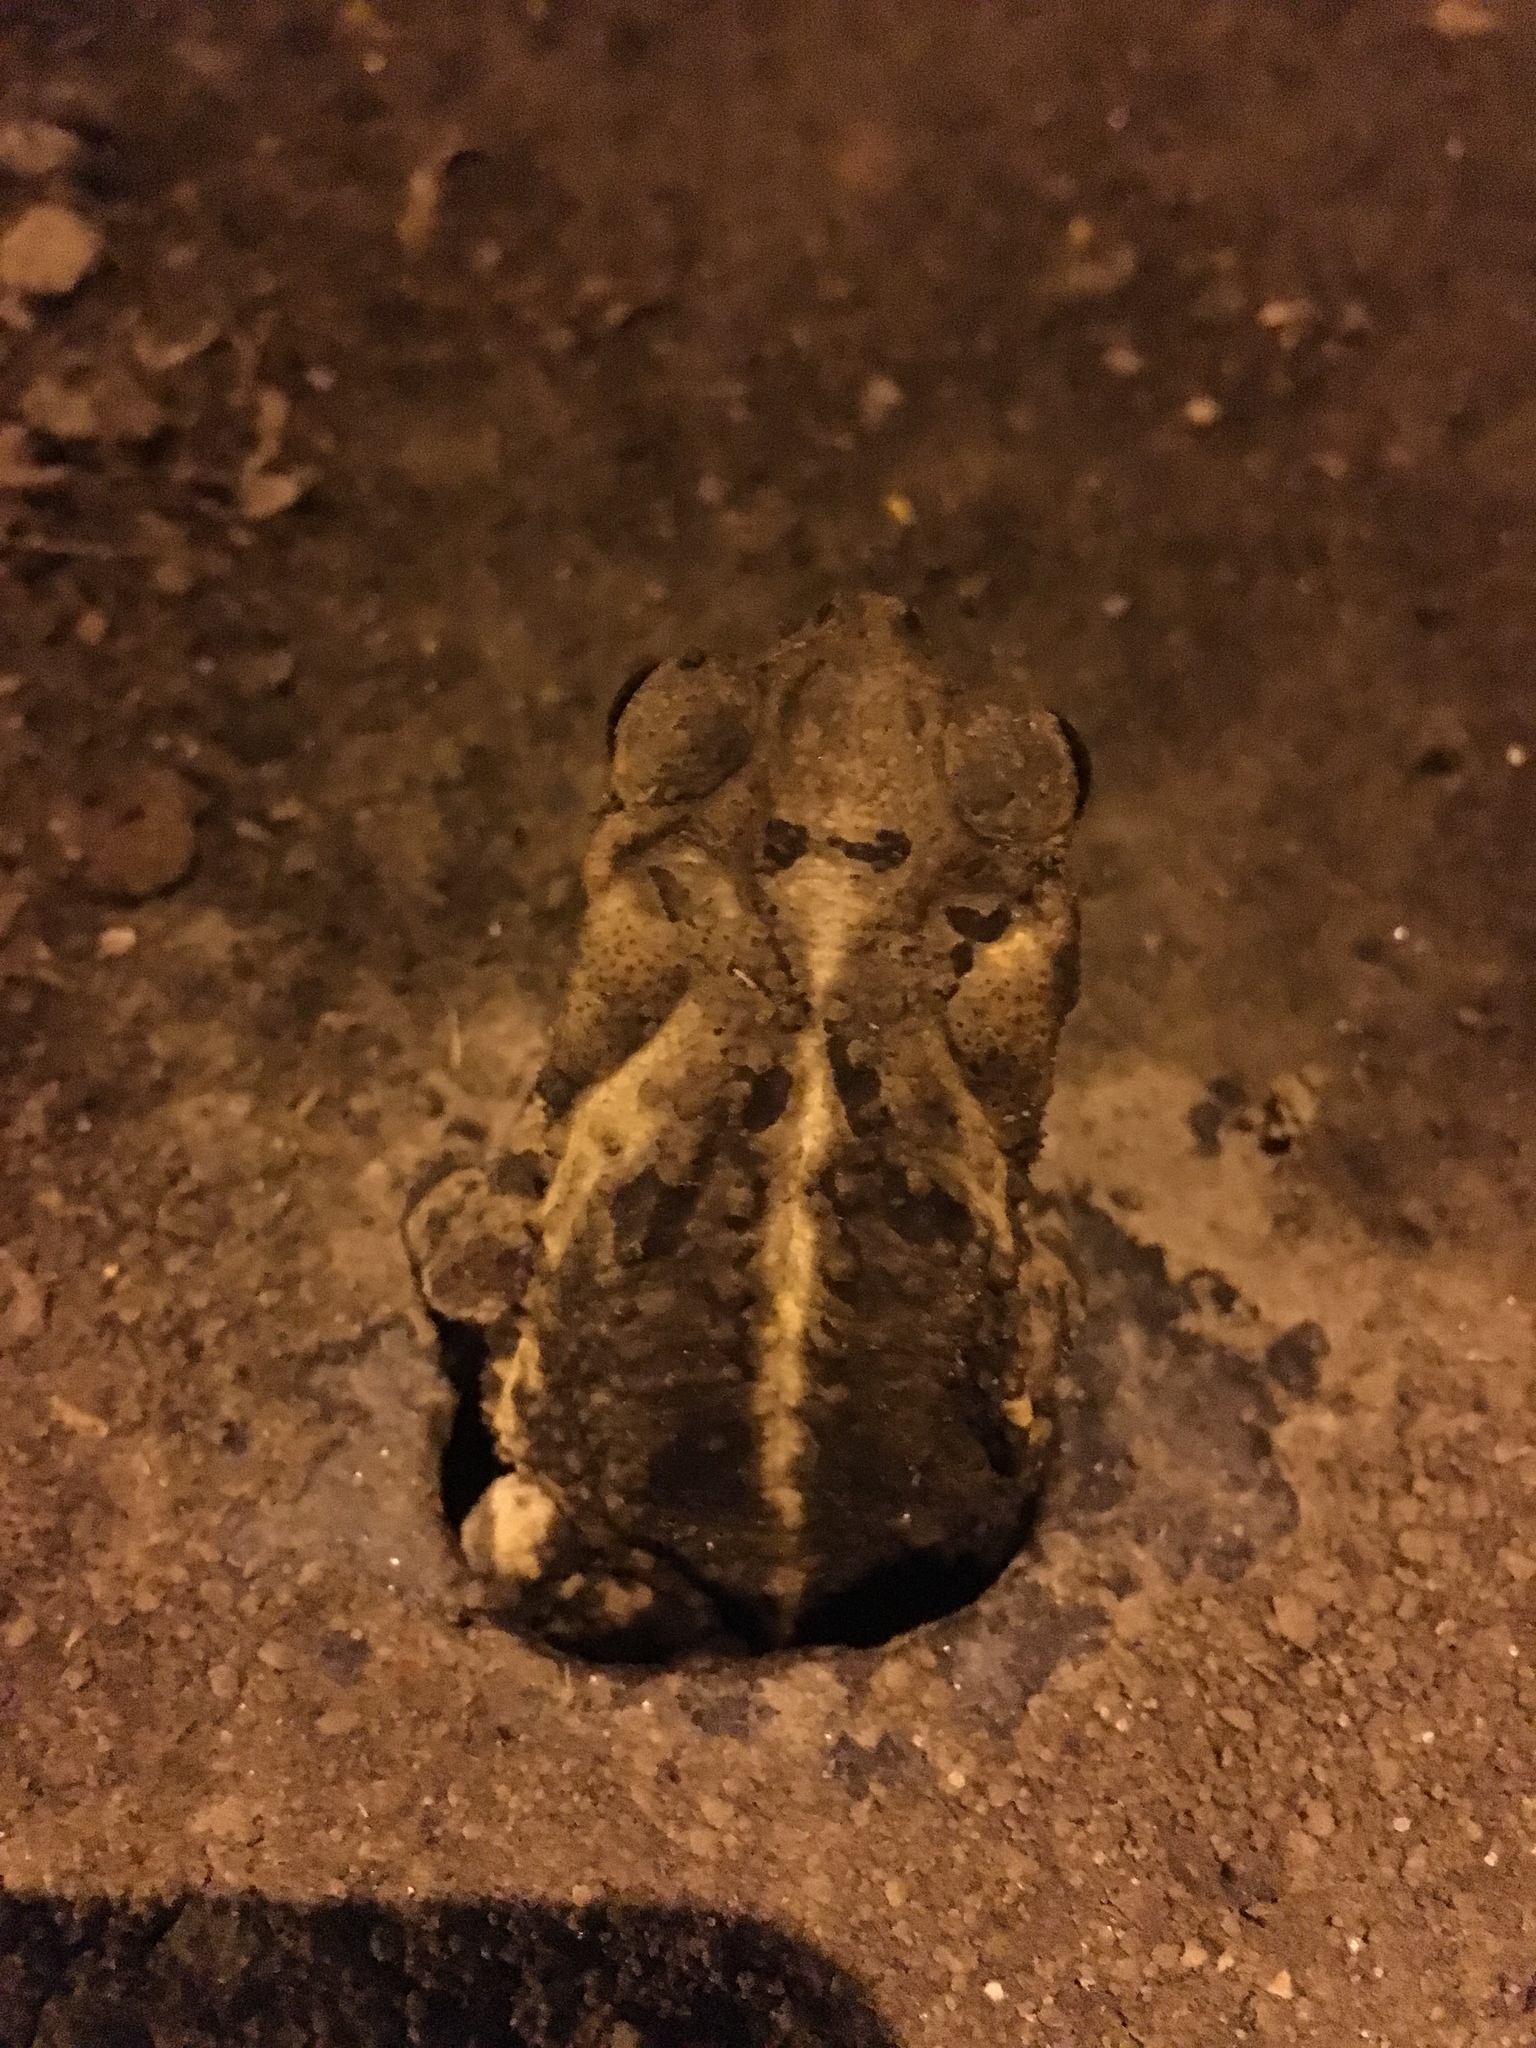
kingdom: Animalia
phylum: Chordata
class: Amphibia
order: Anura
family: Bufonidae
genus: Incilius
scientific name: Incilius nebulifer
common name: Gulf coast toad
